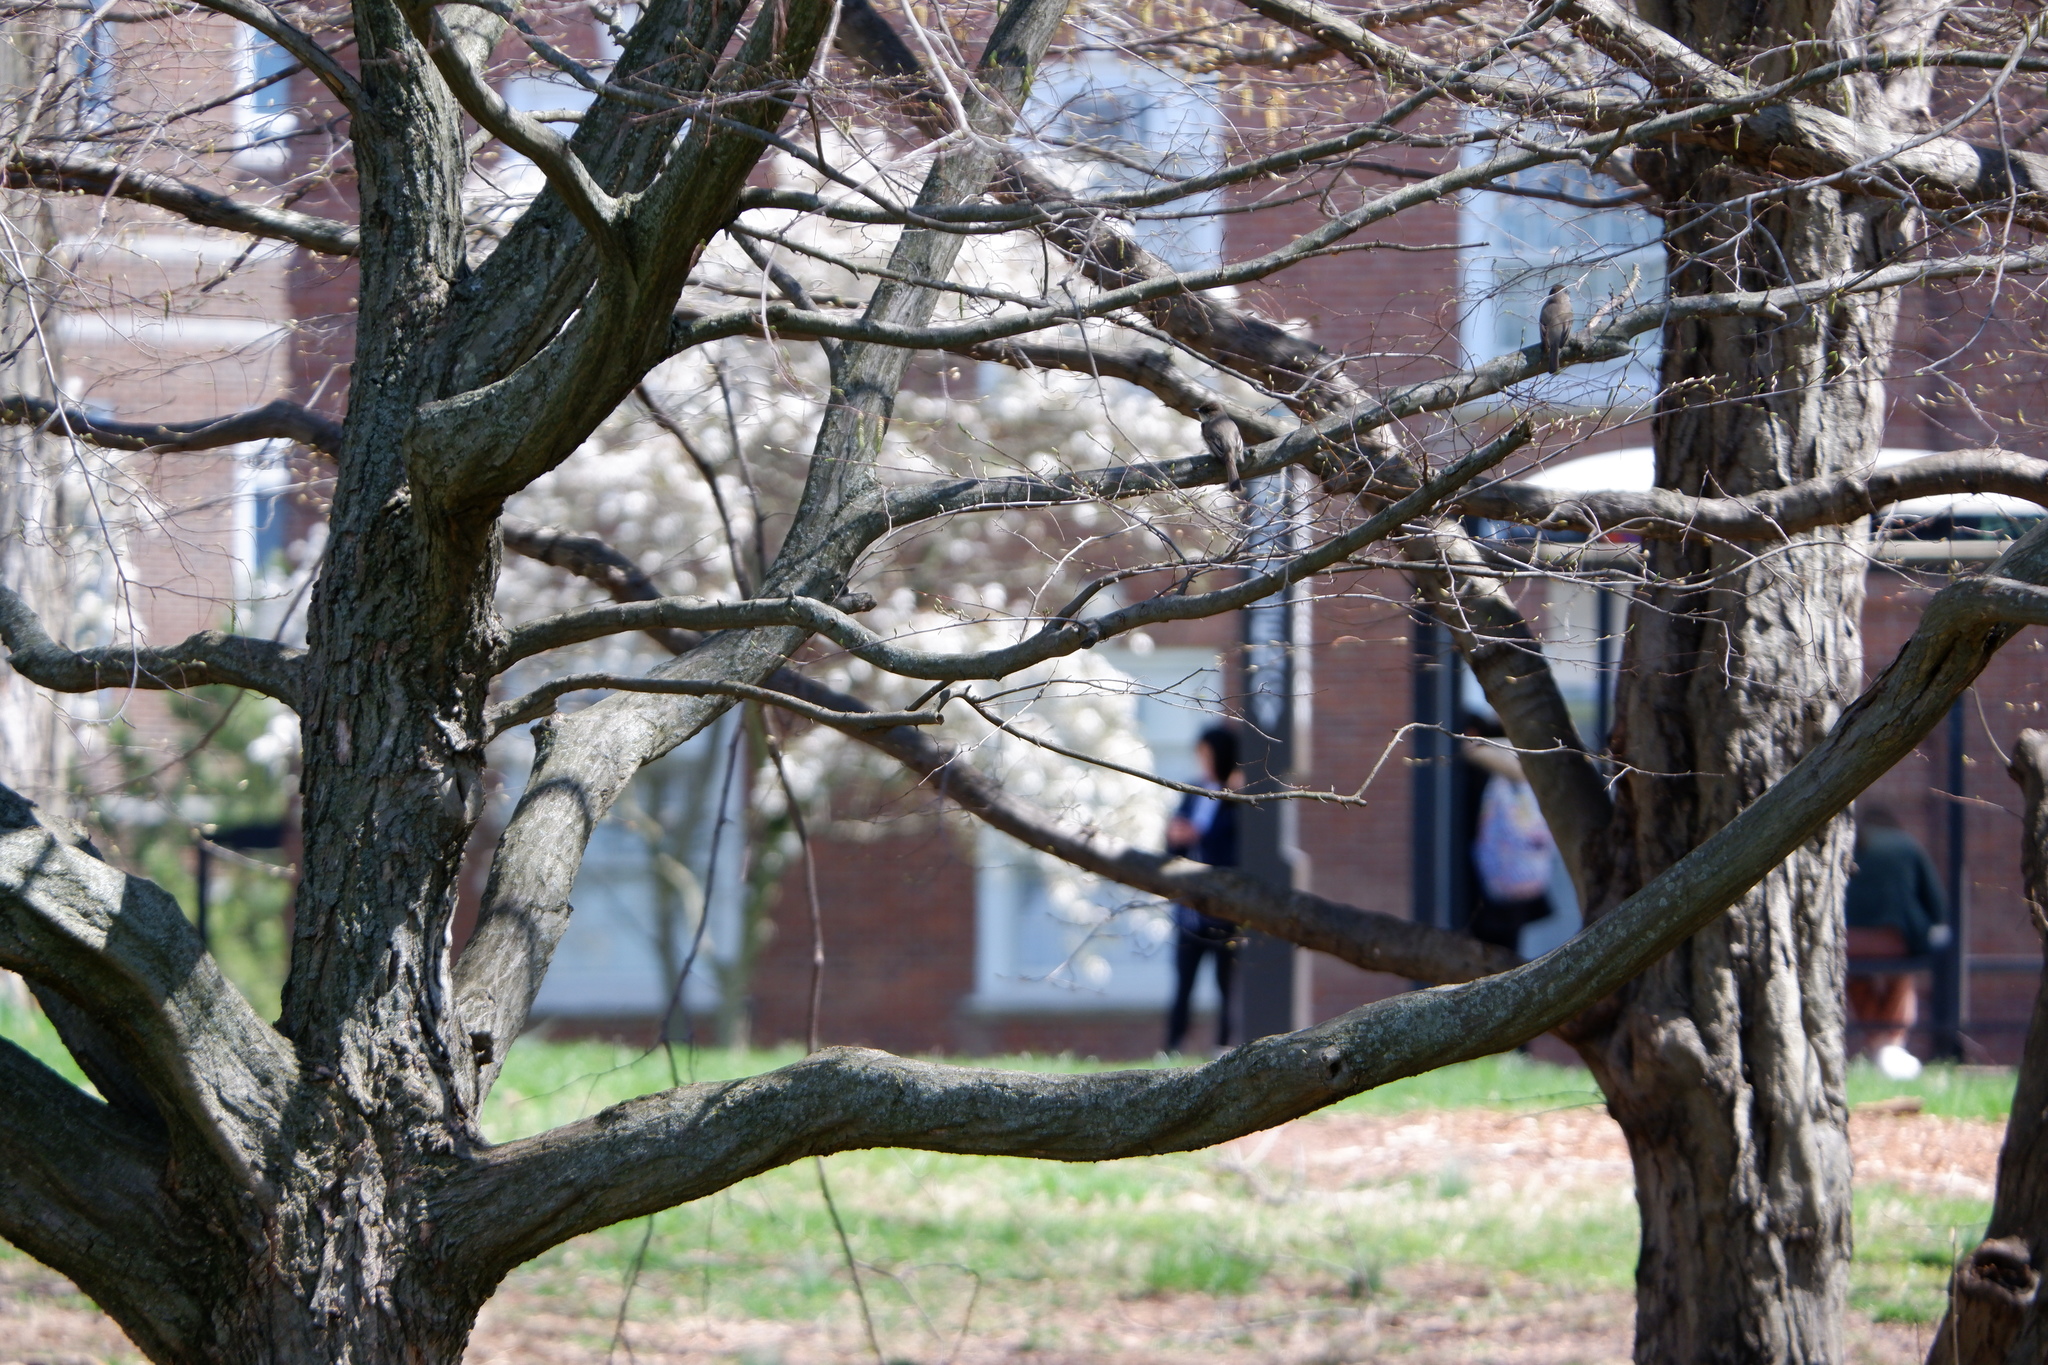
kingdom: Animalia
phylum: Chordata
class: Aves
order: Passeriformes
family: Tyrannidae
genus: Sayornis
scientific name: Sayornis phoebe
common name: Eastern phoebe
